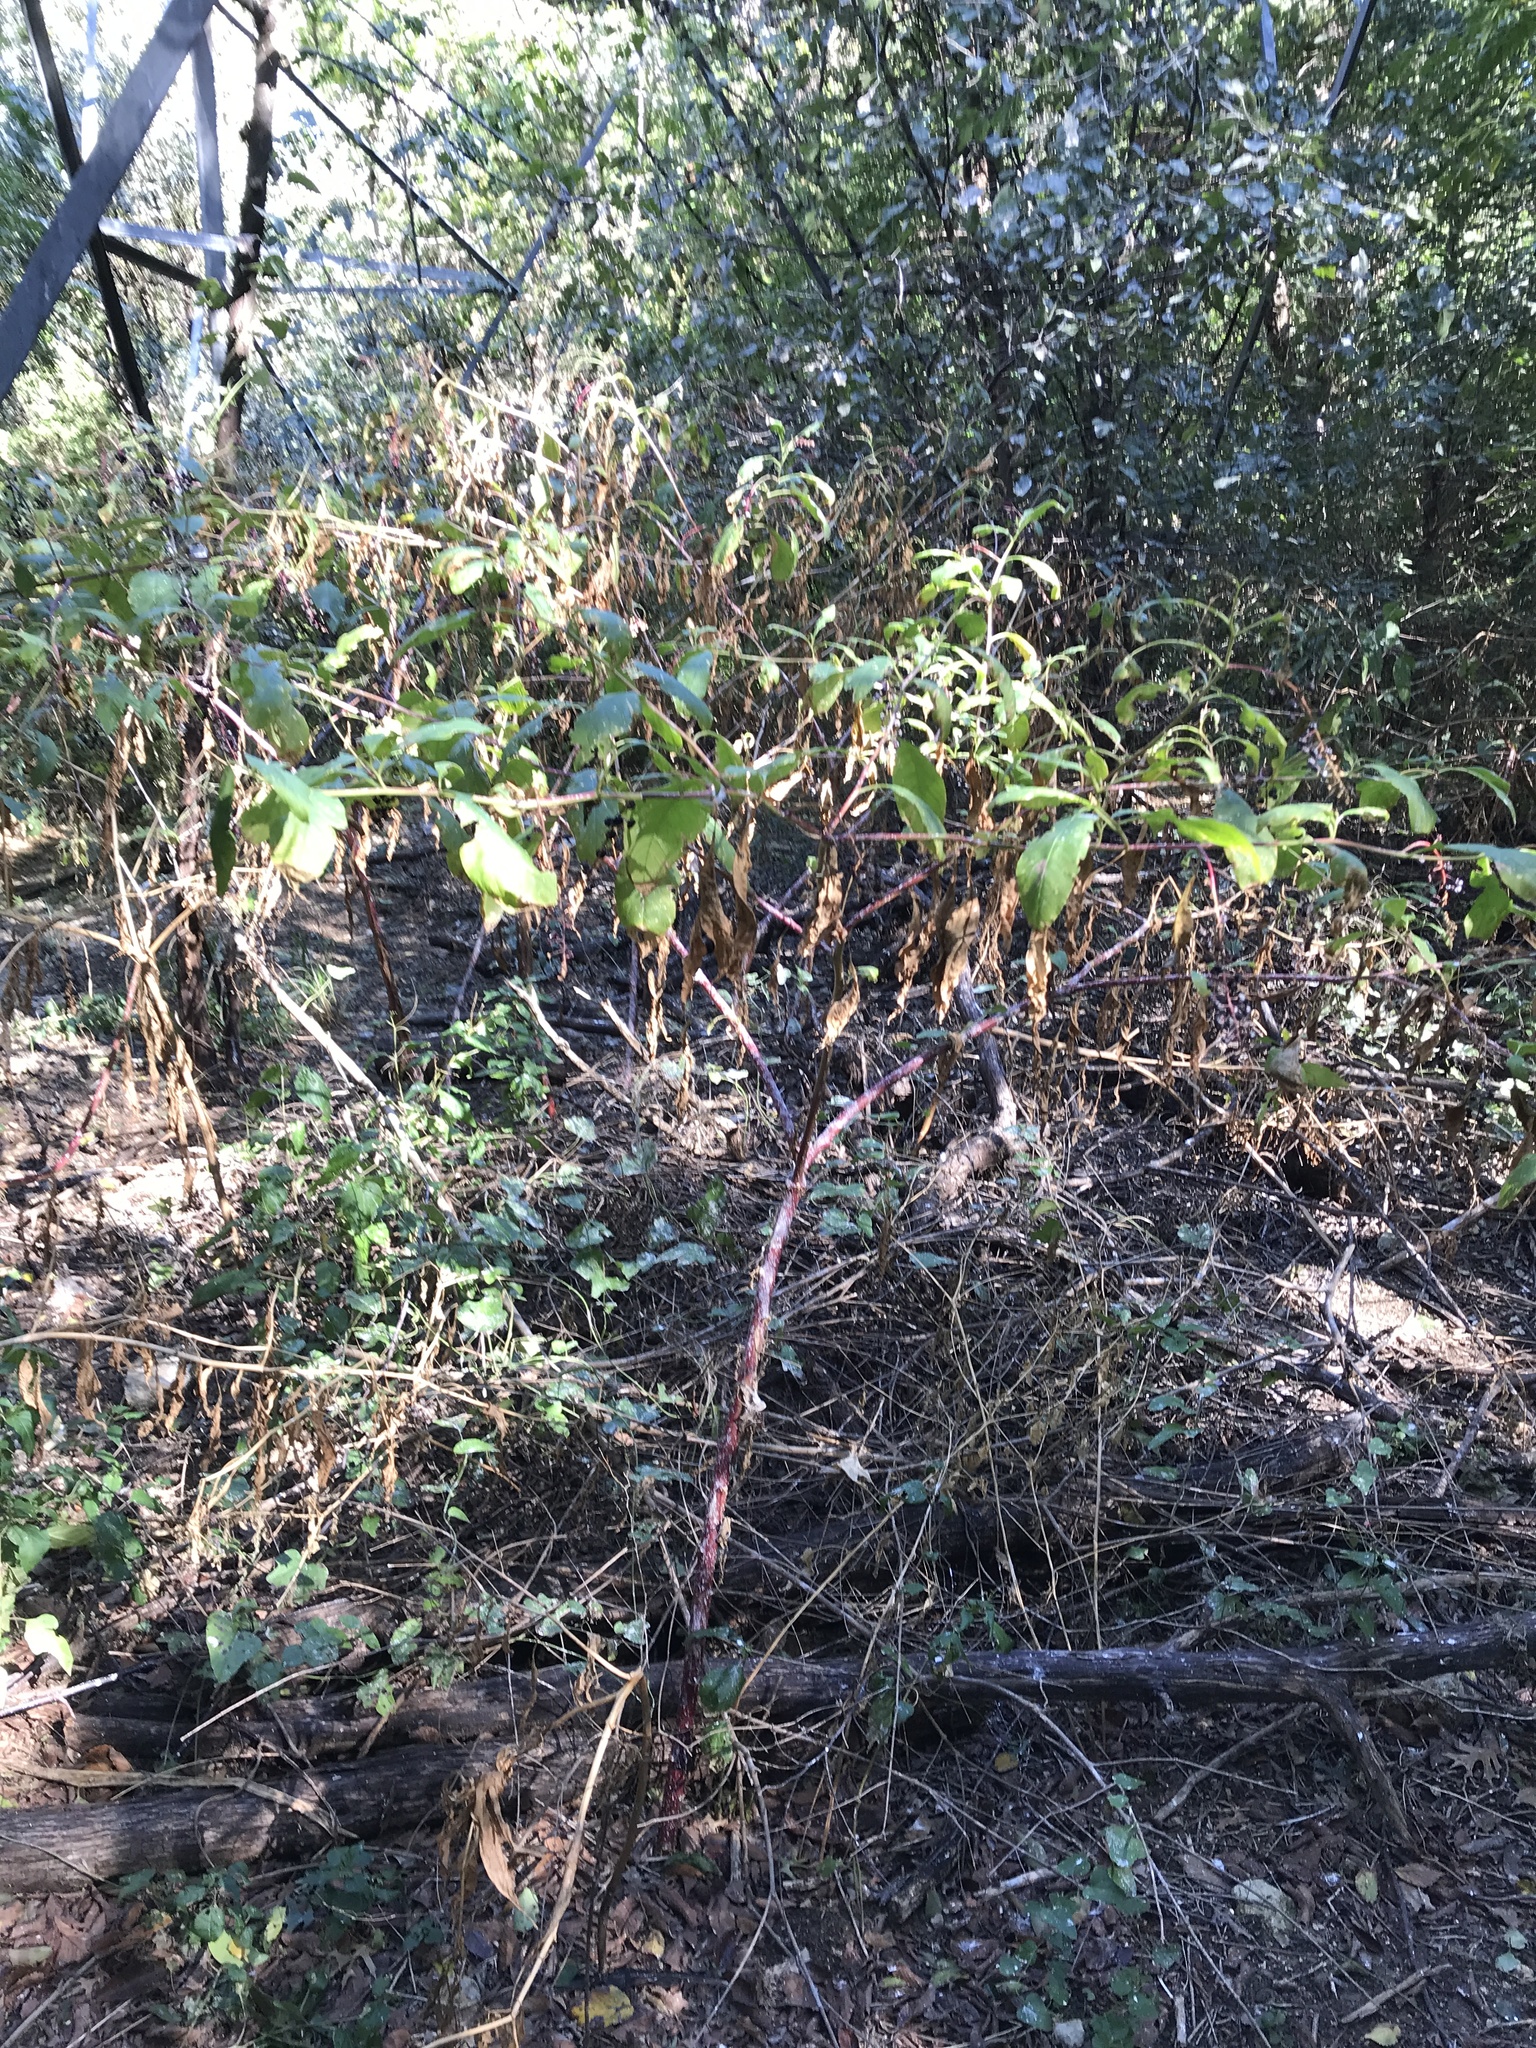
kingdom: Plantae
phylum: Tracheophyta
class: Magnoliopsida
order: Caryophyllales
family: Phytolaccaceae
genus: Phytolacca
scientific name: Phytolacca americana
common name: American pokeweed
